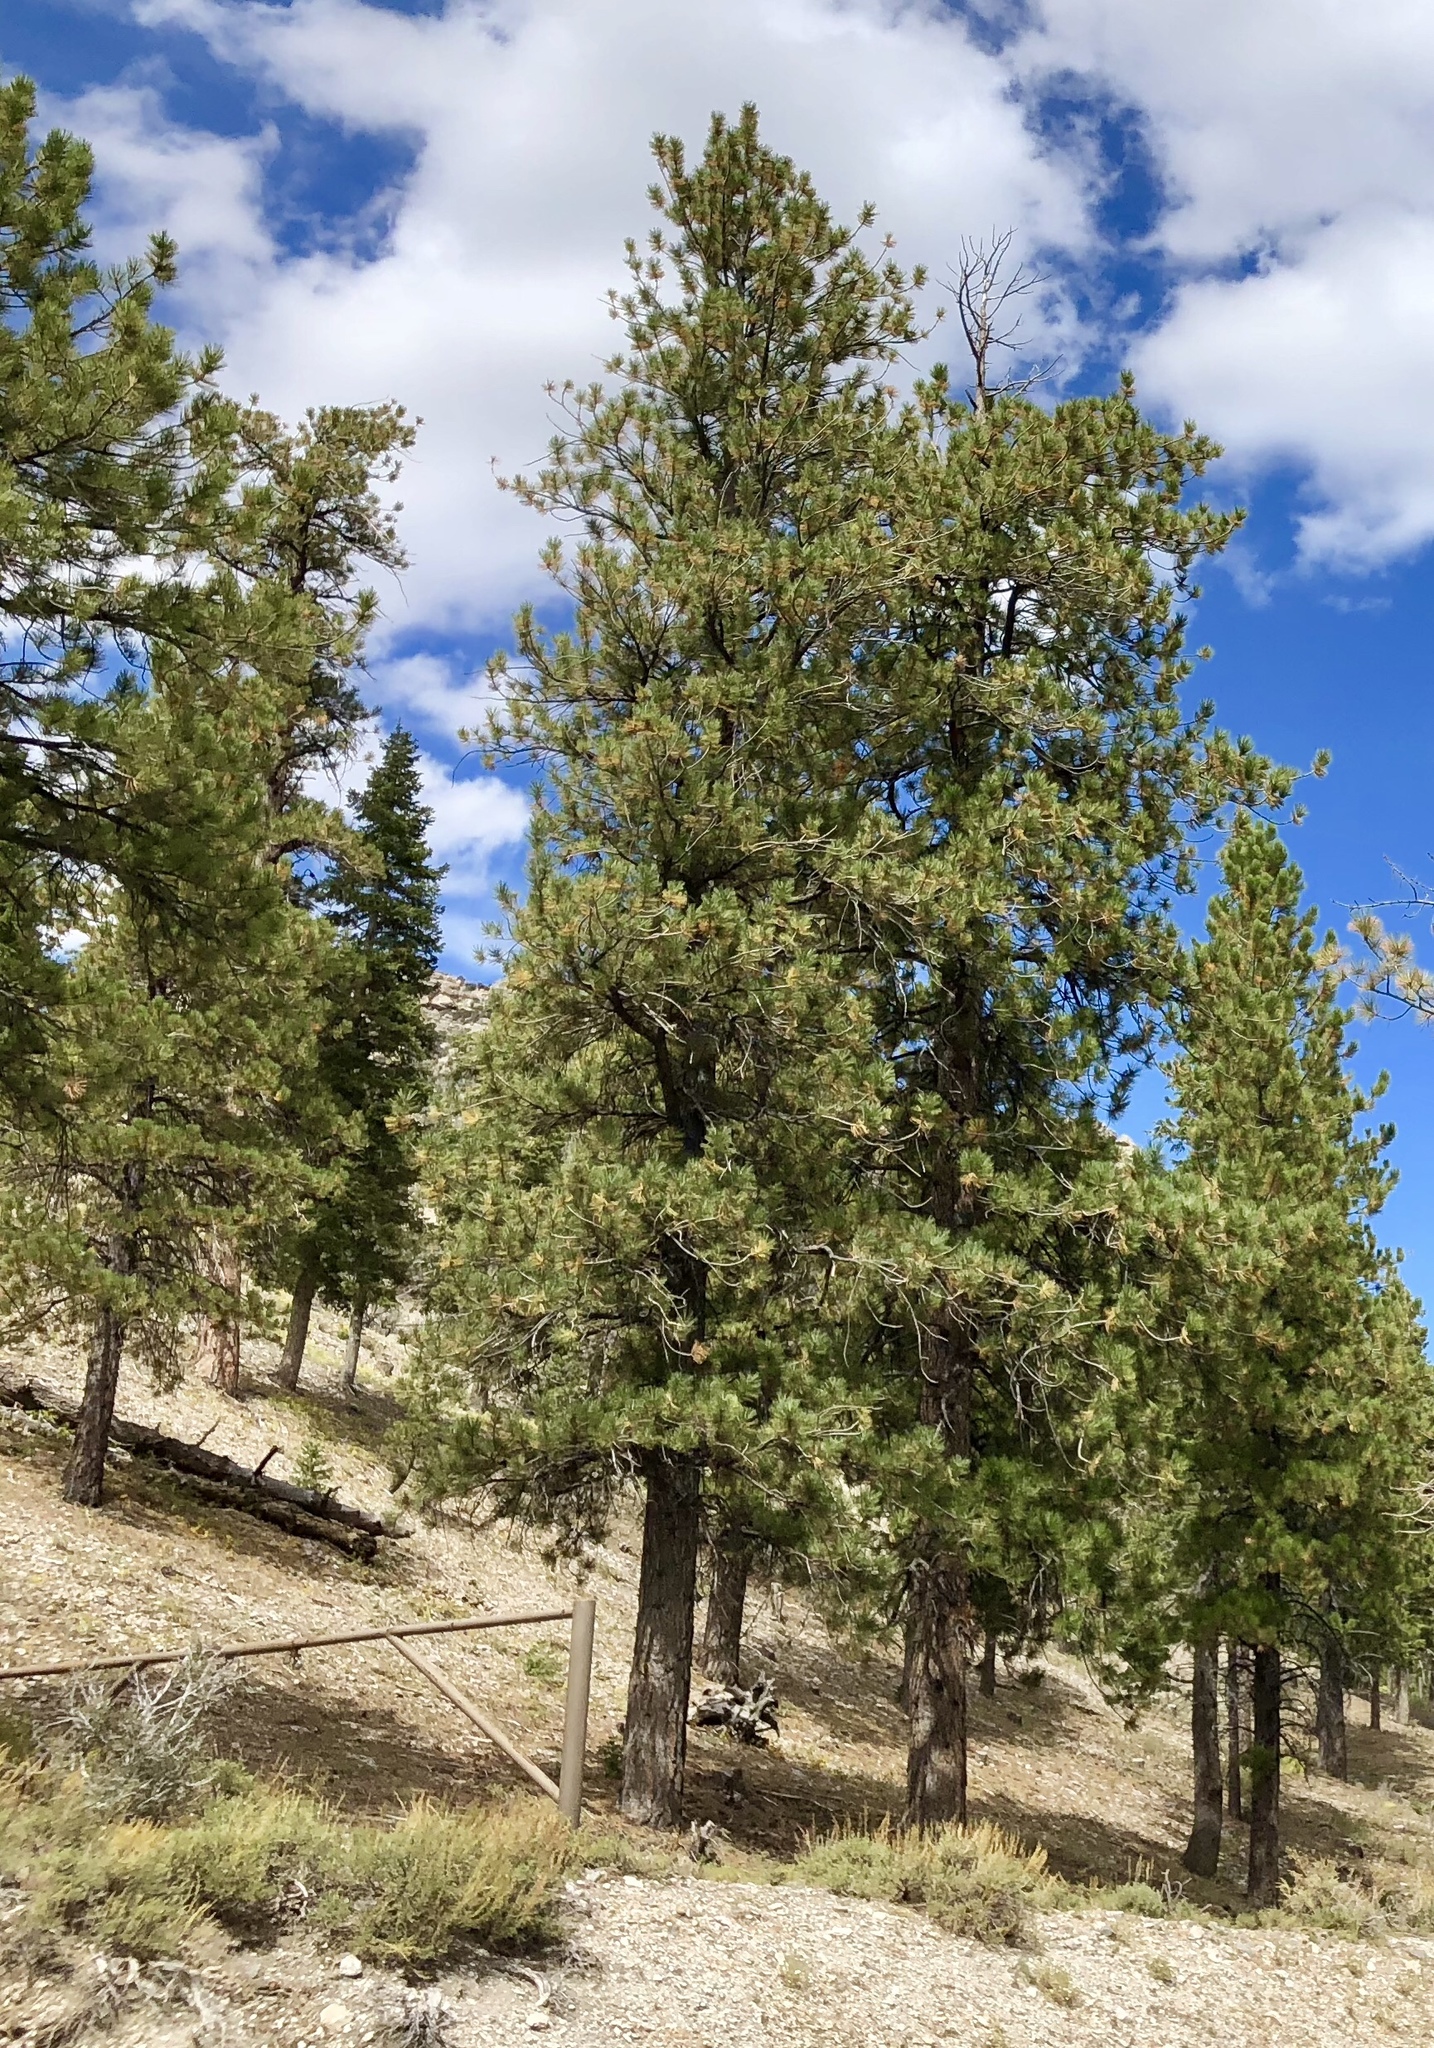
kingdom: Plantae
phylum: Tracheophyta
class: Pinopsida
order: Pinales
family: Pinaceae
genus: Pinus
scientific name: Pinus ponderosa
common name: Western yellow-pine
